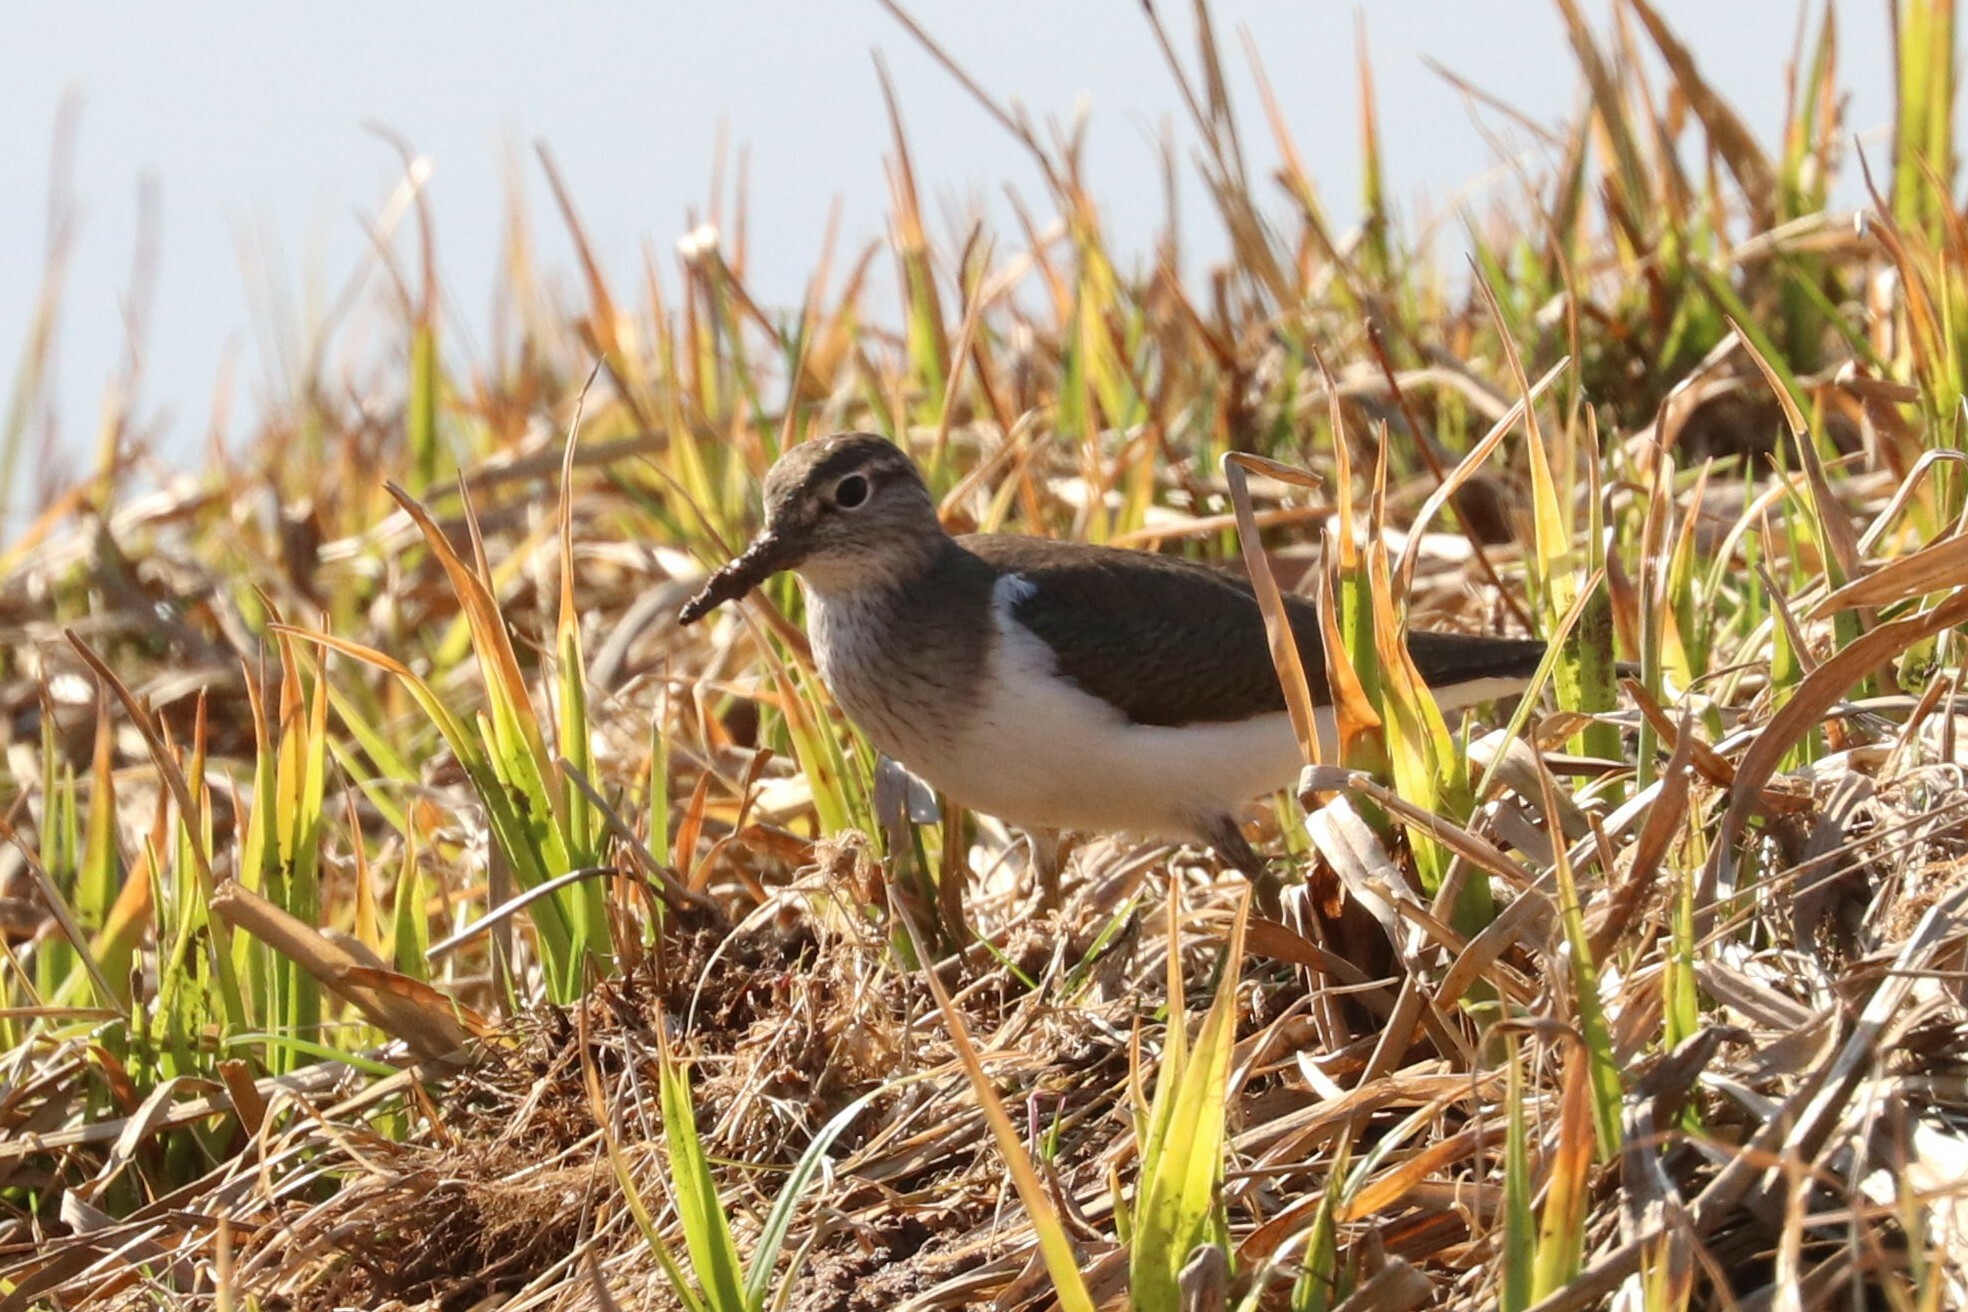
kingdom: Animalia
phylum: Chordata
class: Aves
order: Charadriiformes
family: Scolopacidae
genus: Actitis
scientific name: Actitis hypoleucos
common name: Common sandpiper
